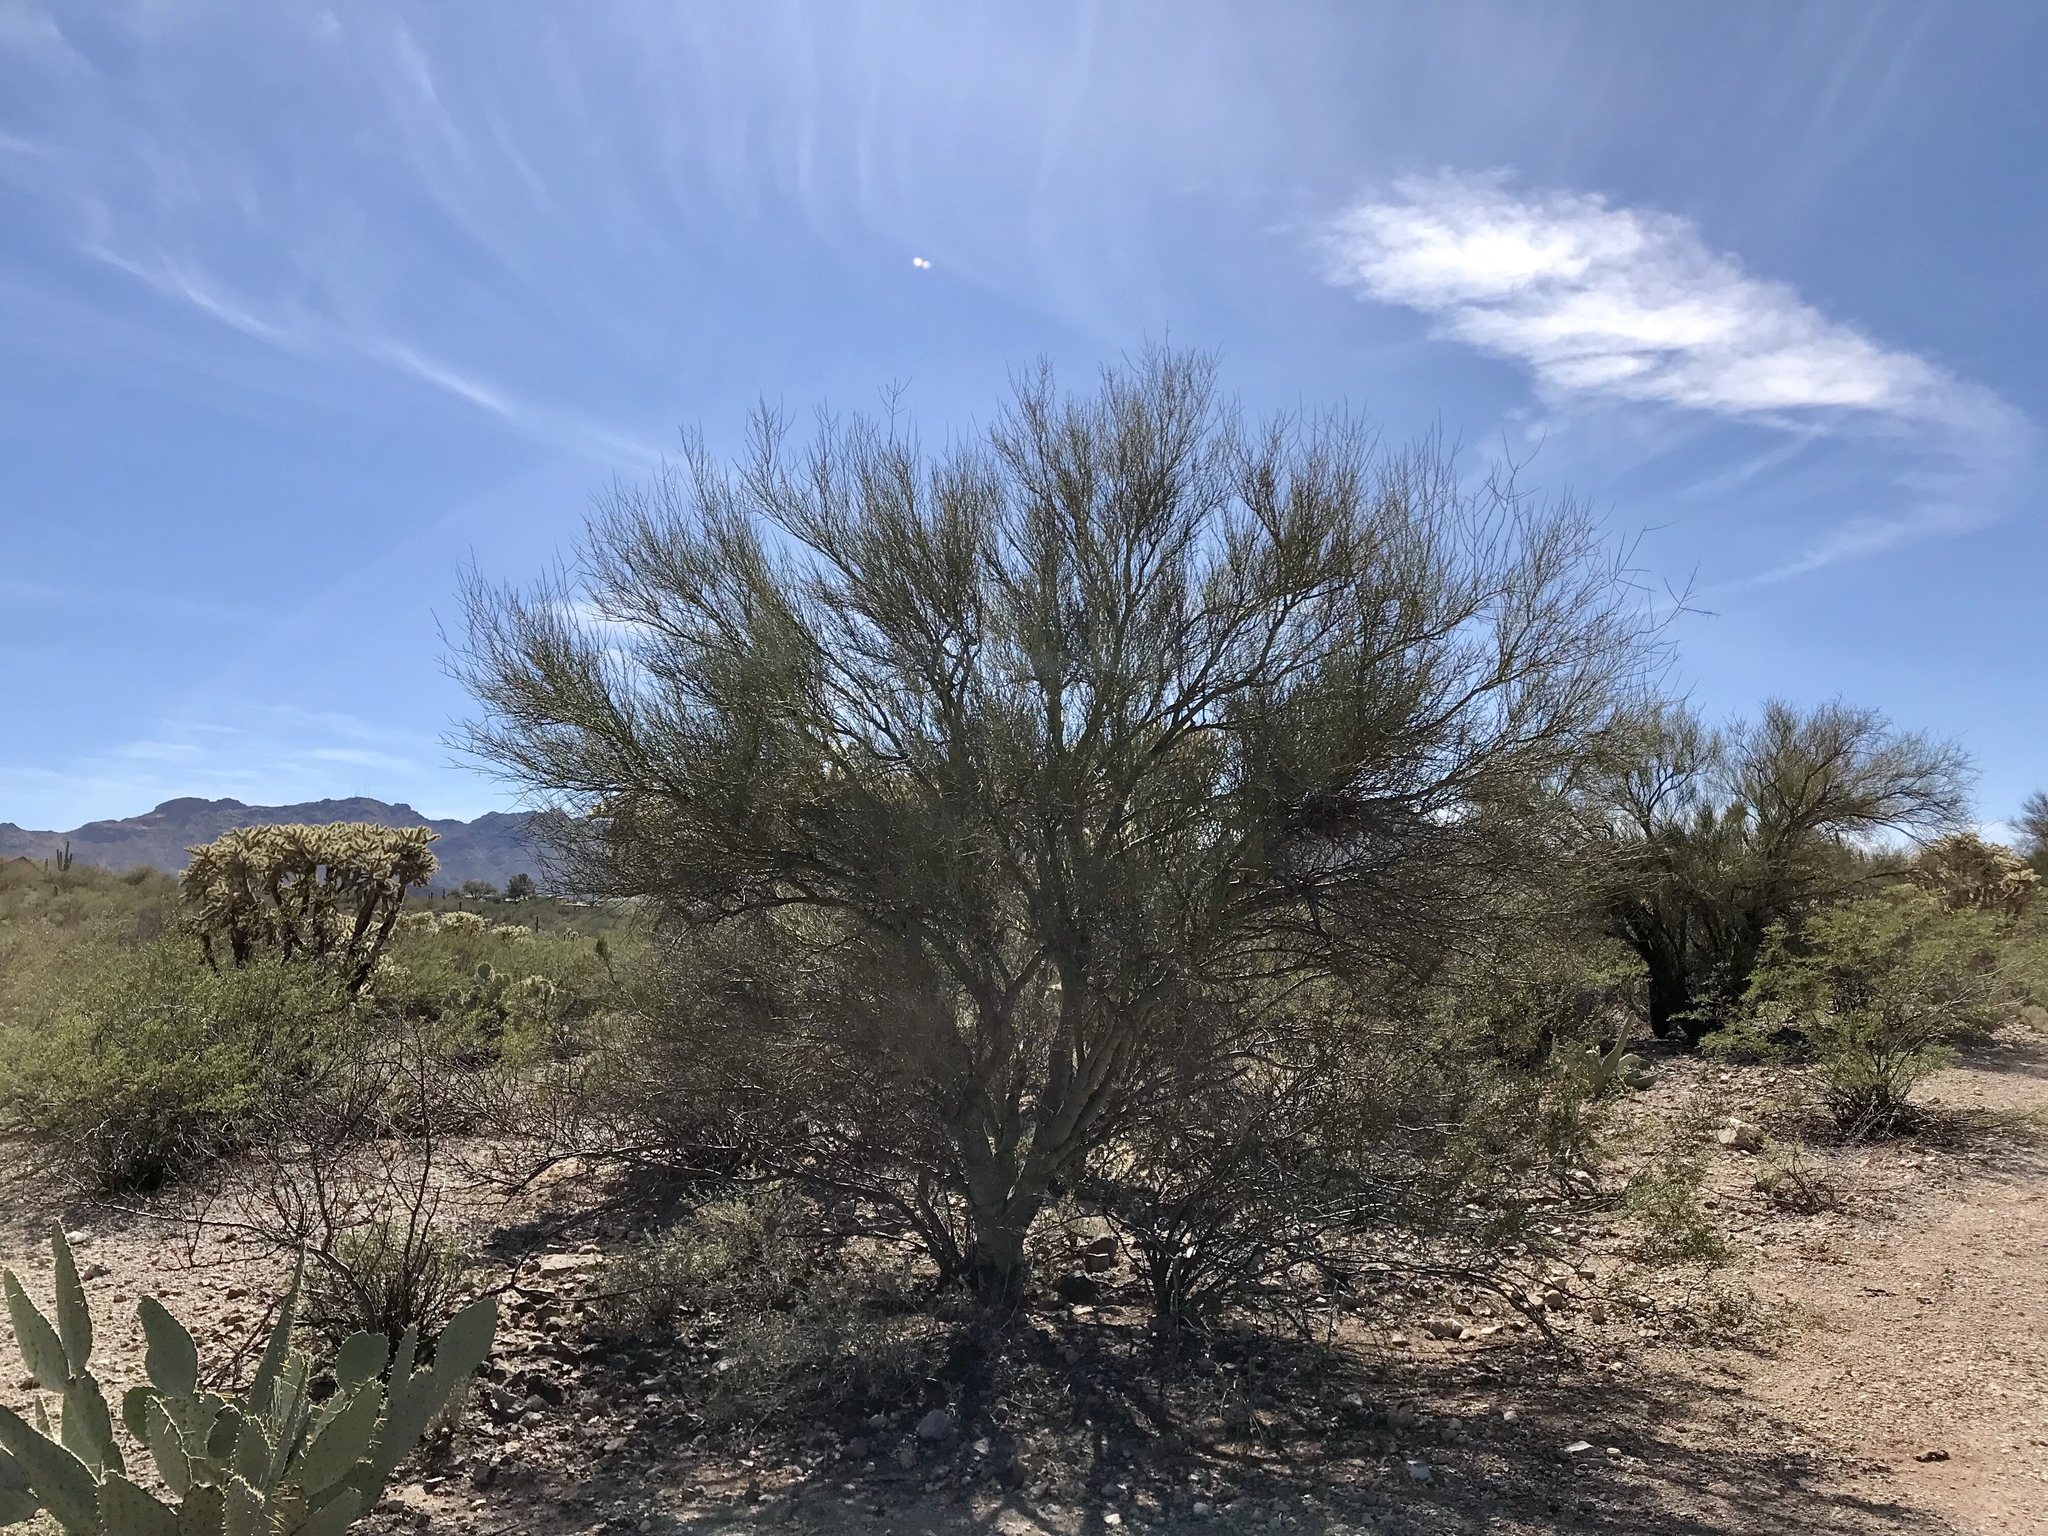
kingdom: Plantae
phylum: Tracheophyta
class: Magnoliopsida
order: Fabales
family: Fabaceae
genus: Parkinsonia
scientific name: Parkinsonia microphylla
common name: Yellow paloverde
